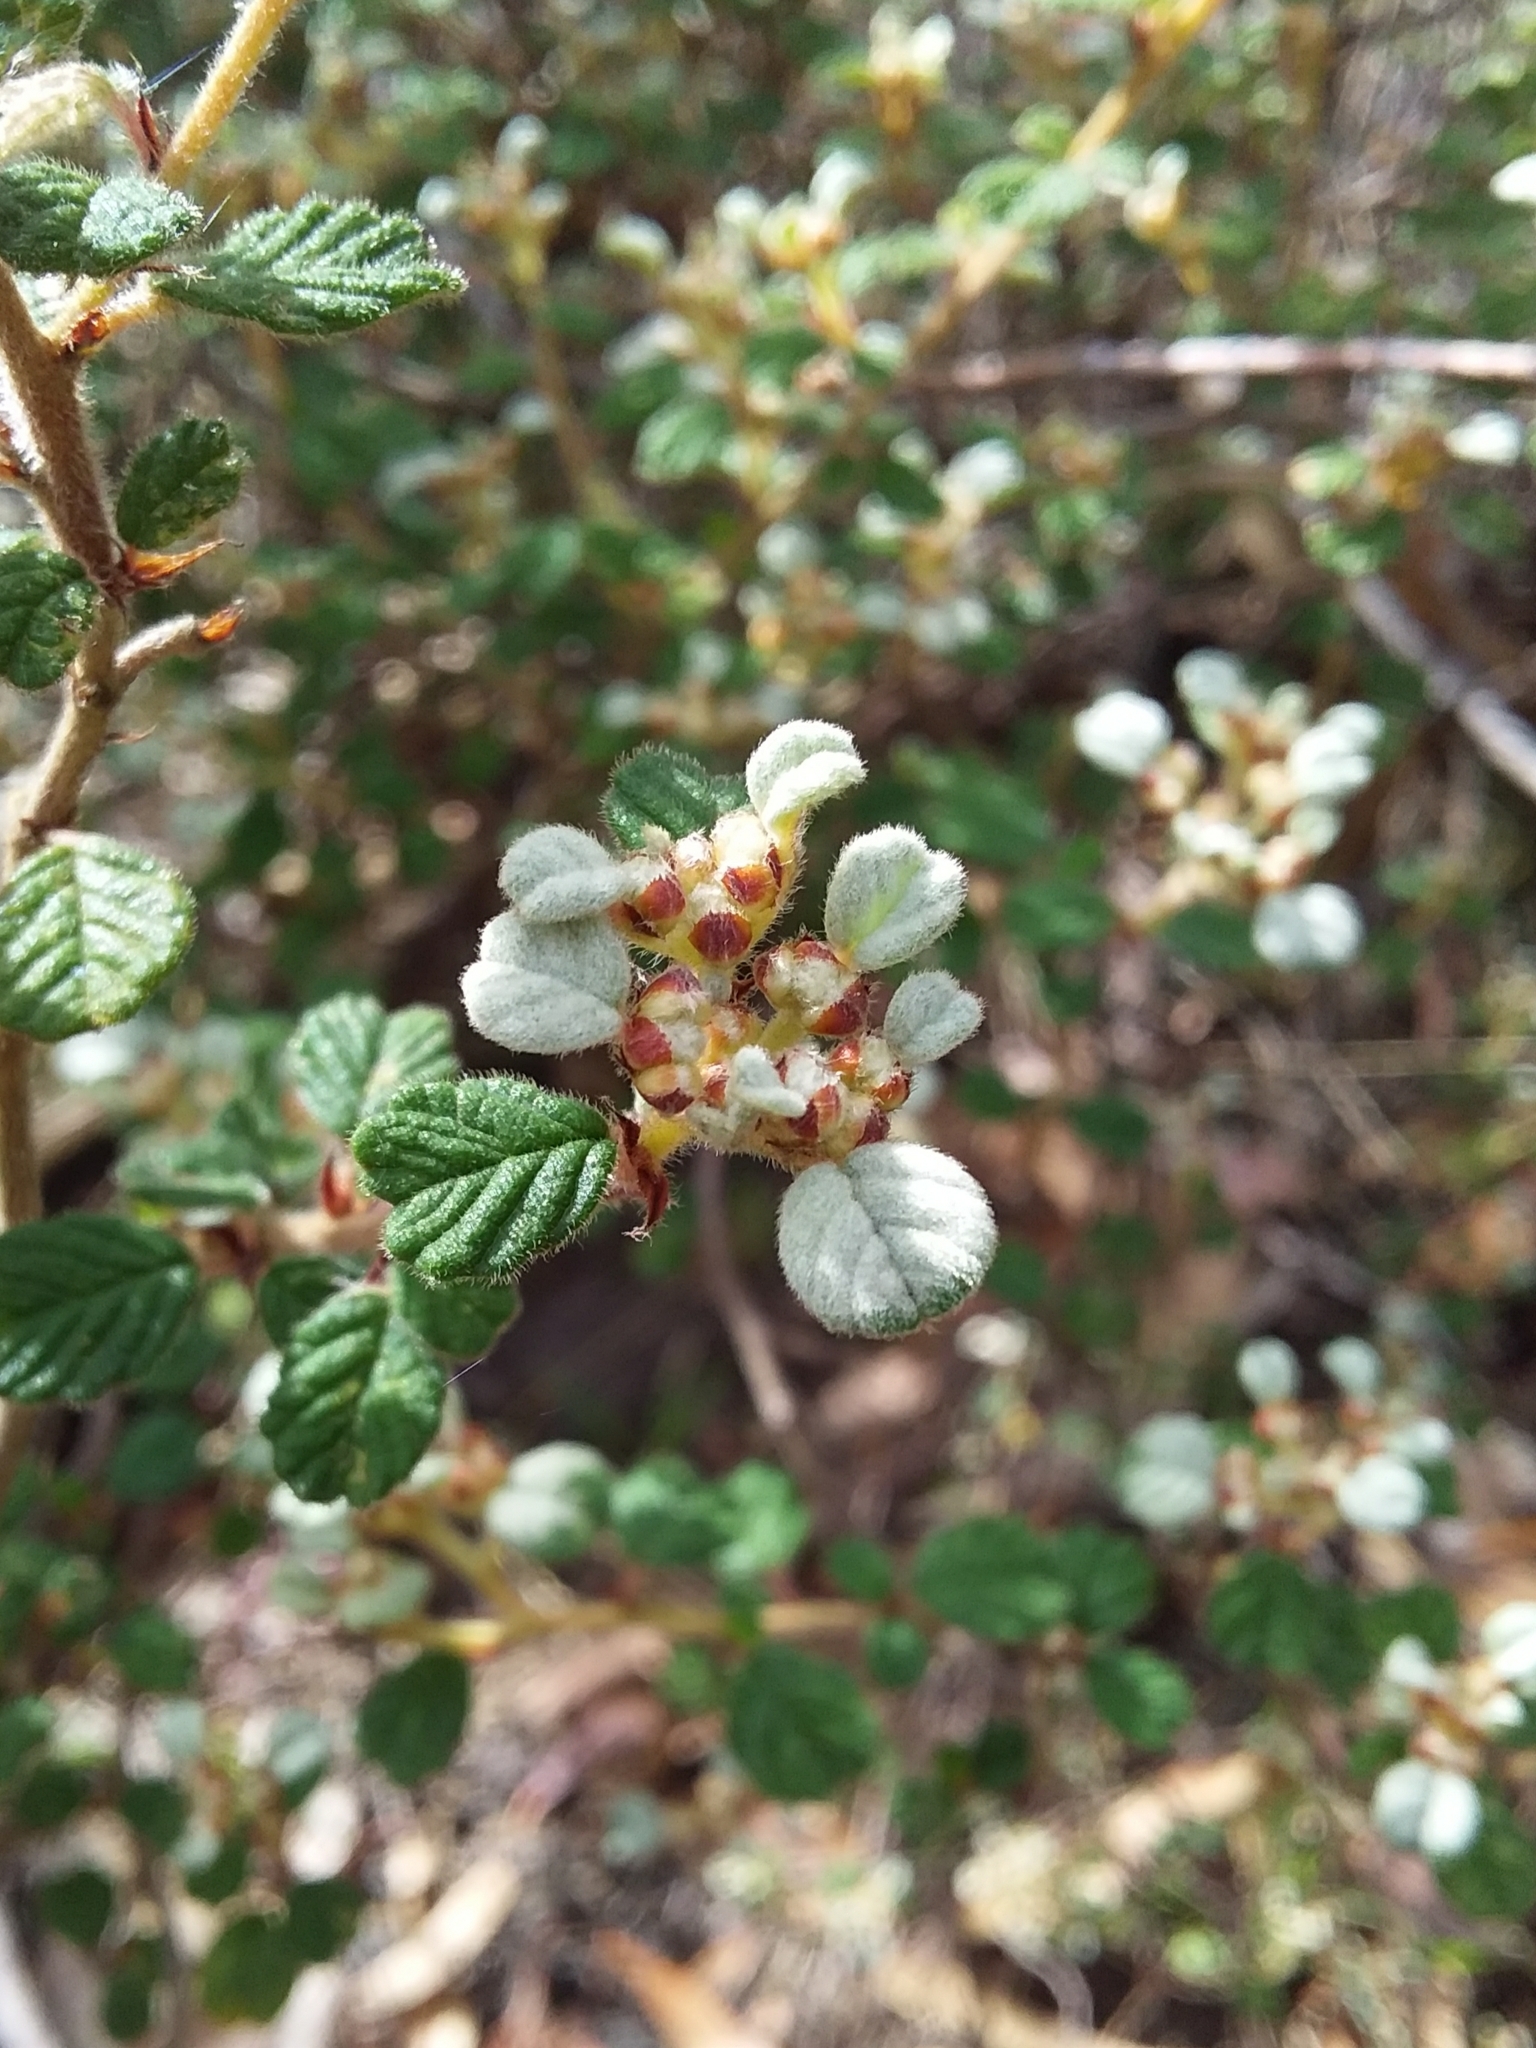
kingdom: Plantae
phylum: Tracheophyta
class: Magnoliopsida
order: Rosales
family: Rhamnaceae
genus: Spyridium
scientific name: Spyridium parvifolium
